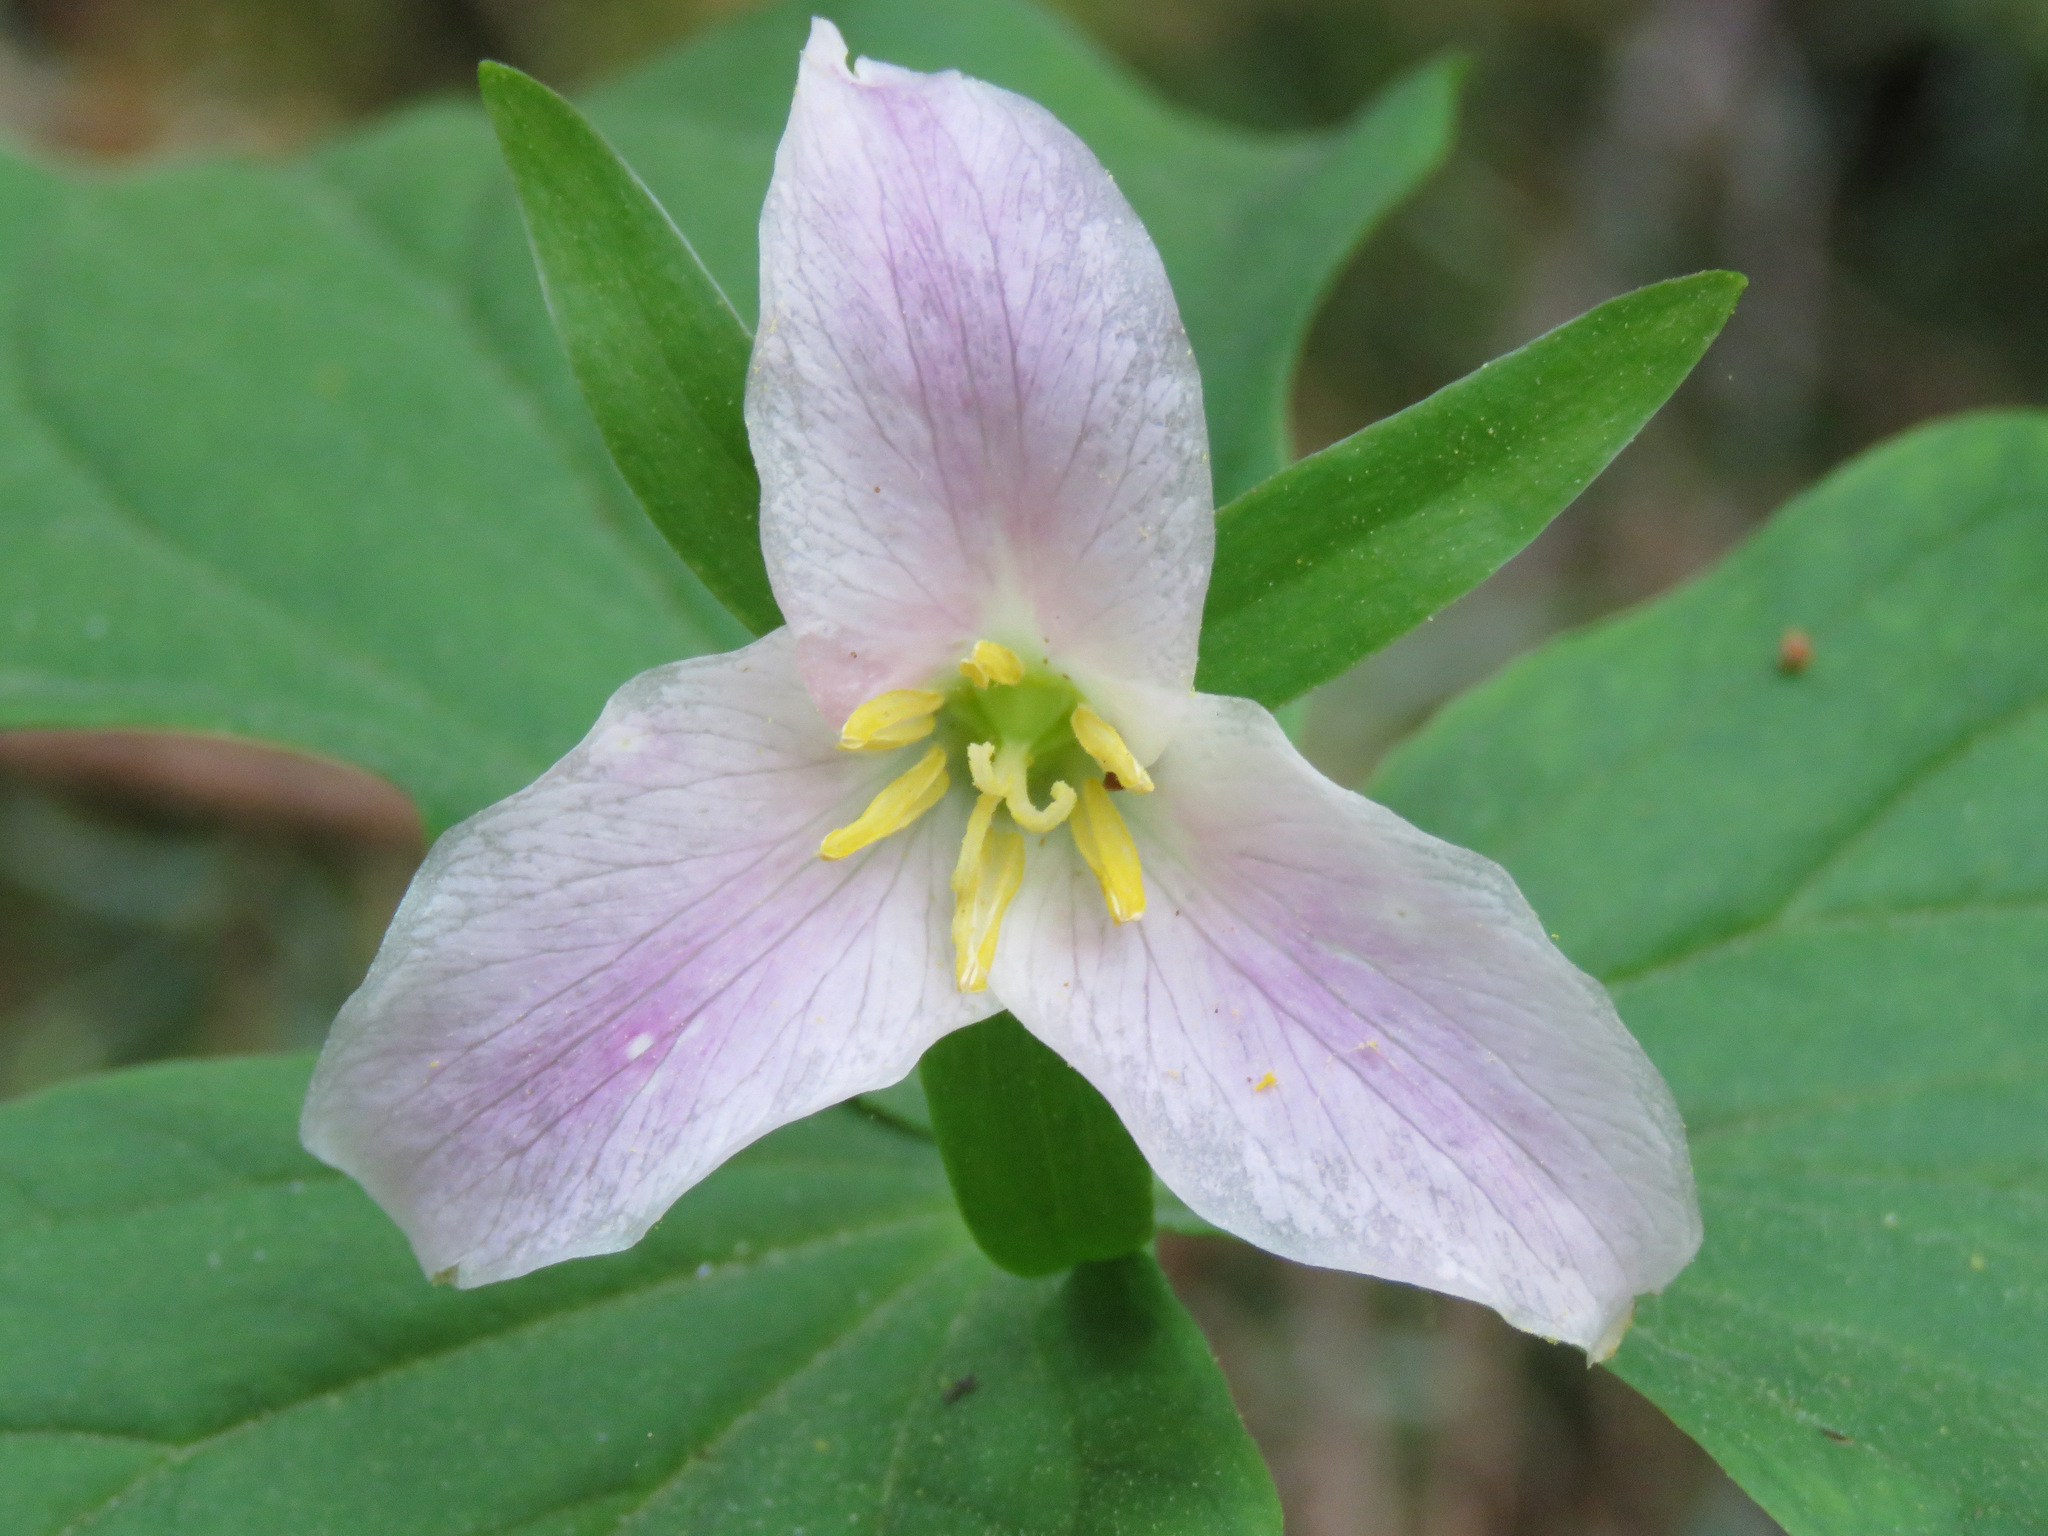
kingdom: Plantae
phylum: Tracheophyta
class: Liliopsida
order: Liliales
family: Melanthiaceae
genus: Trillium
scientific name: Trillium ovatum
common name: Pacific trillium
